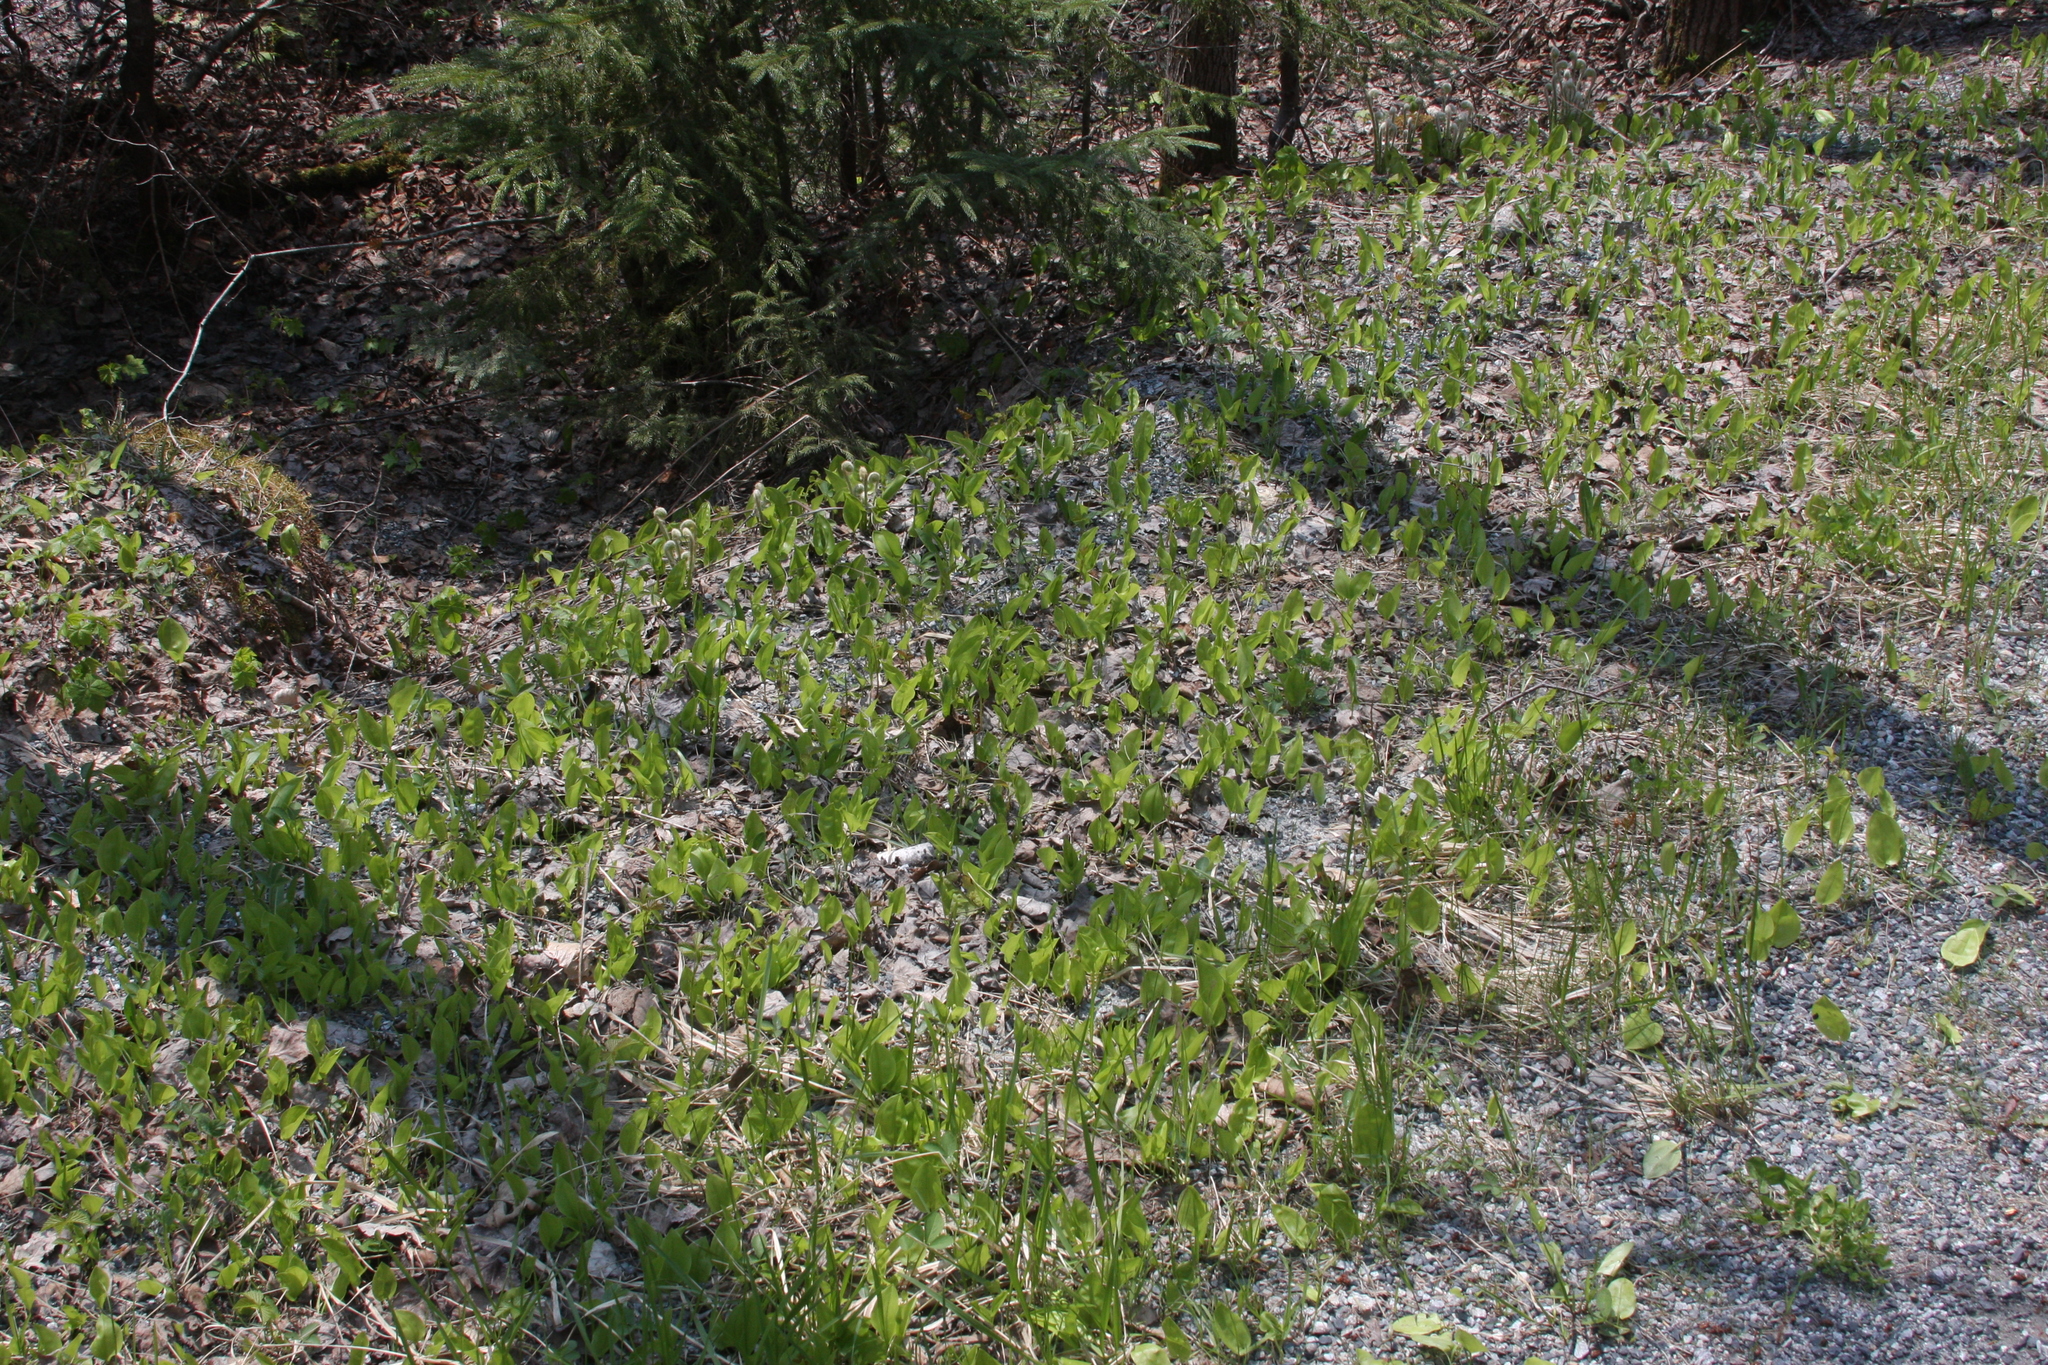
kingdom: Plantae
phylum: Tracheophyta
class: Liliopsida
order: Asparagales
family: Asparagaceae
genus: Maianthemum
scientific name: Maianthemum canadense
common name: False lily-of-the-valley
